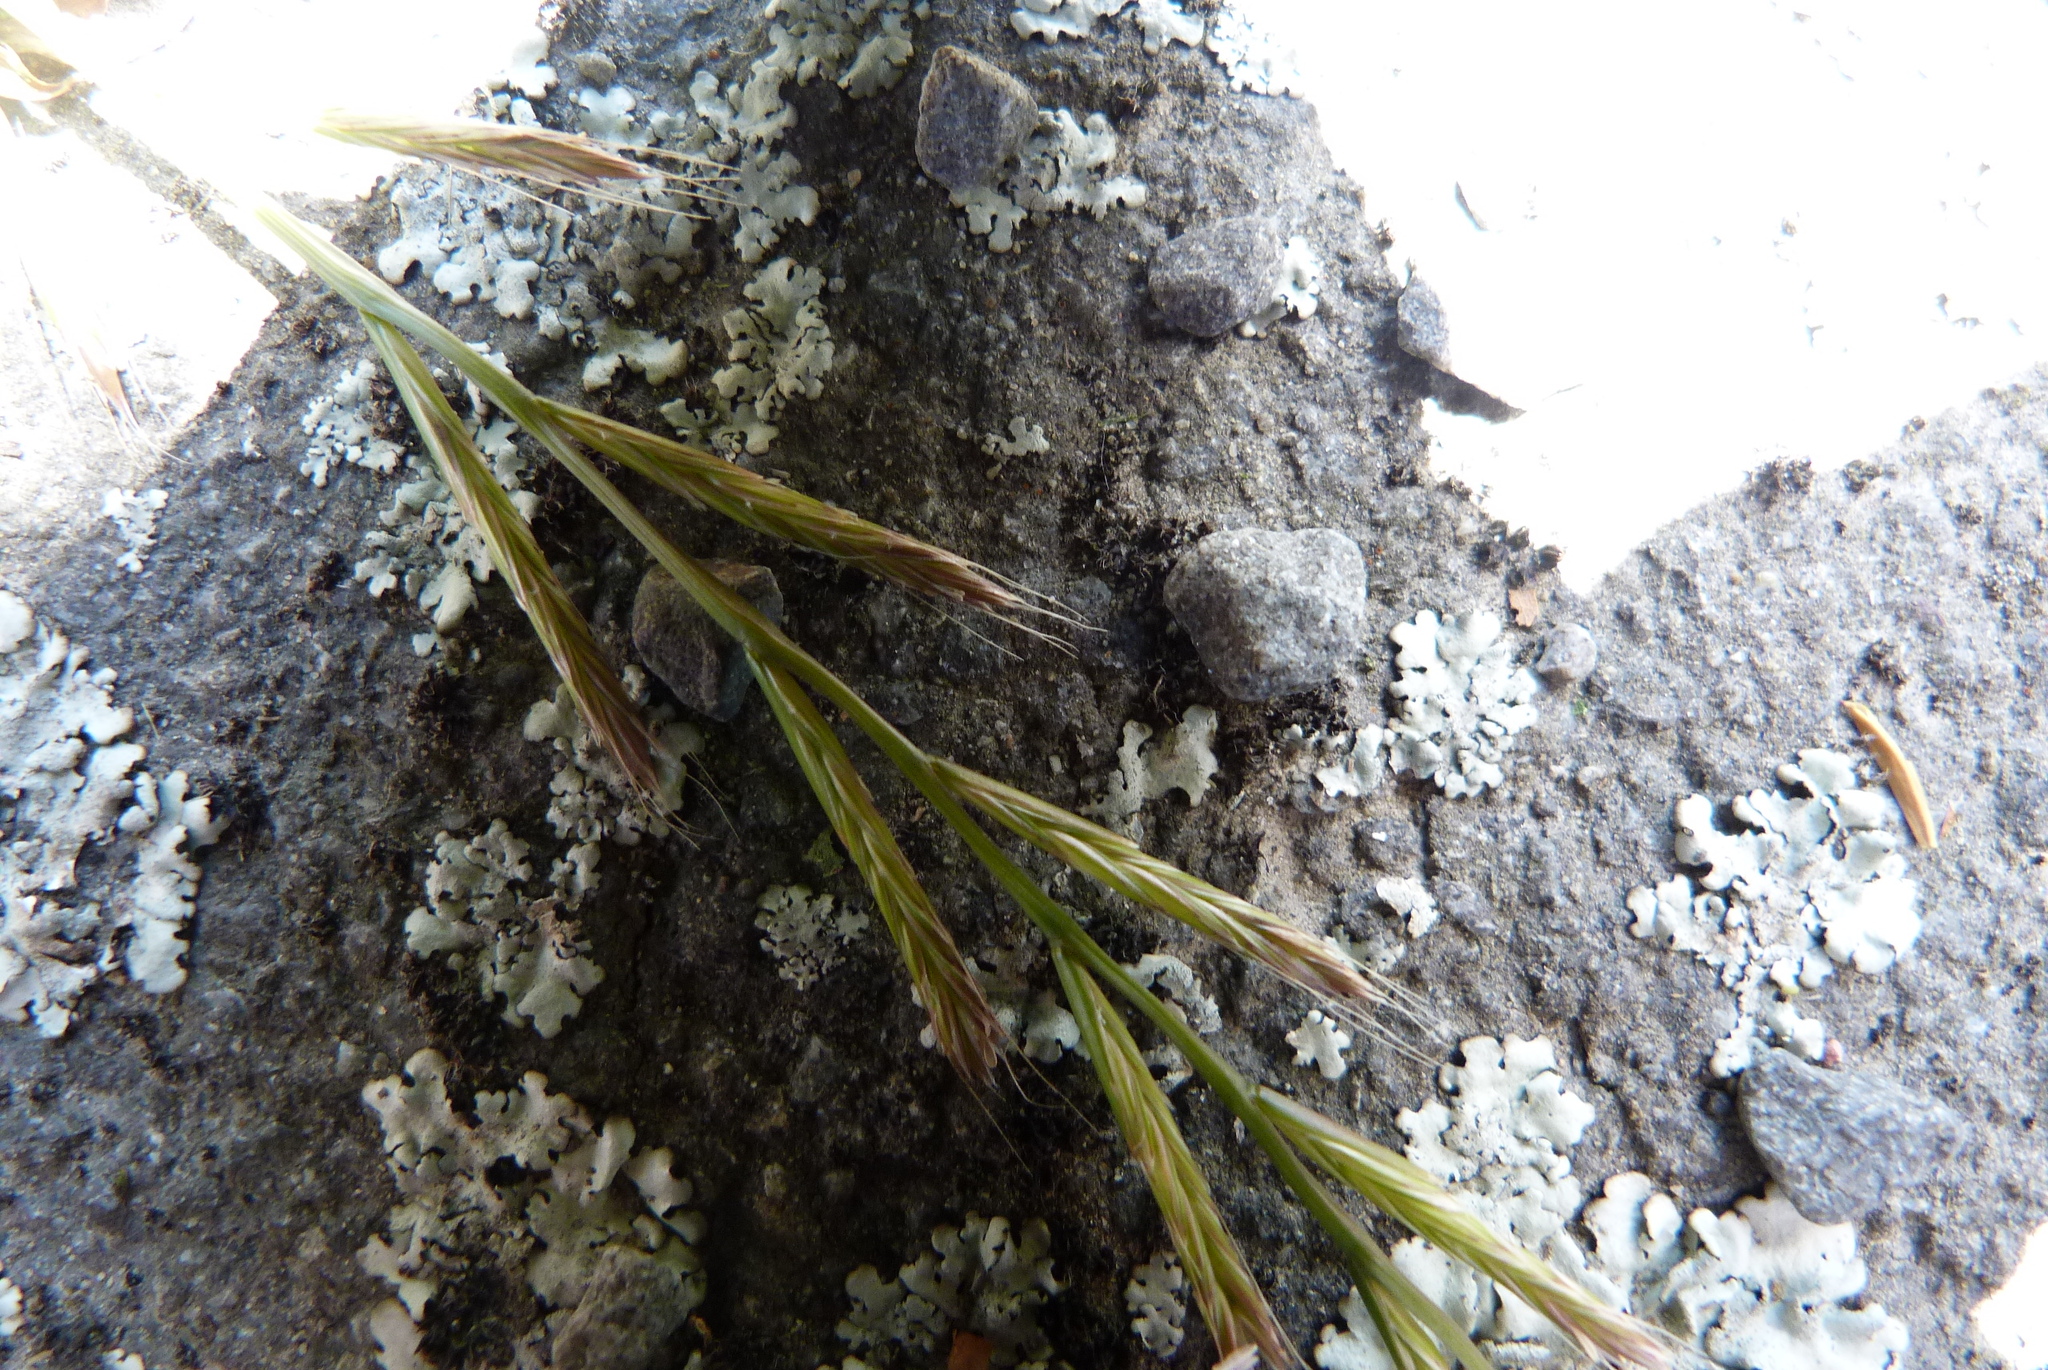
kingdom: Plantae
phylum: Tracheophyta
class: Liliopsida
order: Poales
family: Poaceae
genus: Lolium
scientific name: Lolium multiflorum
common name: Annual ryegrass
